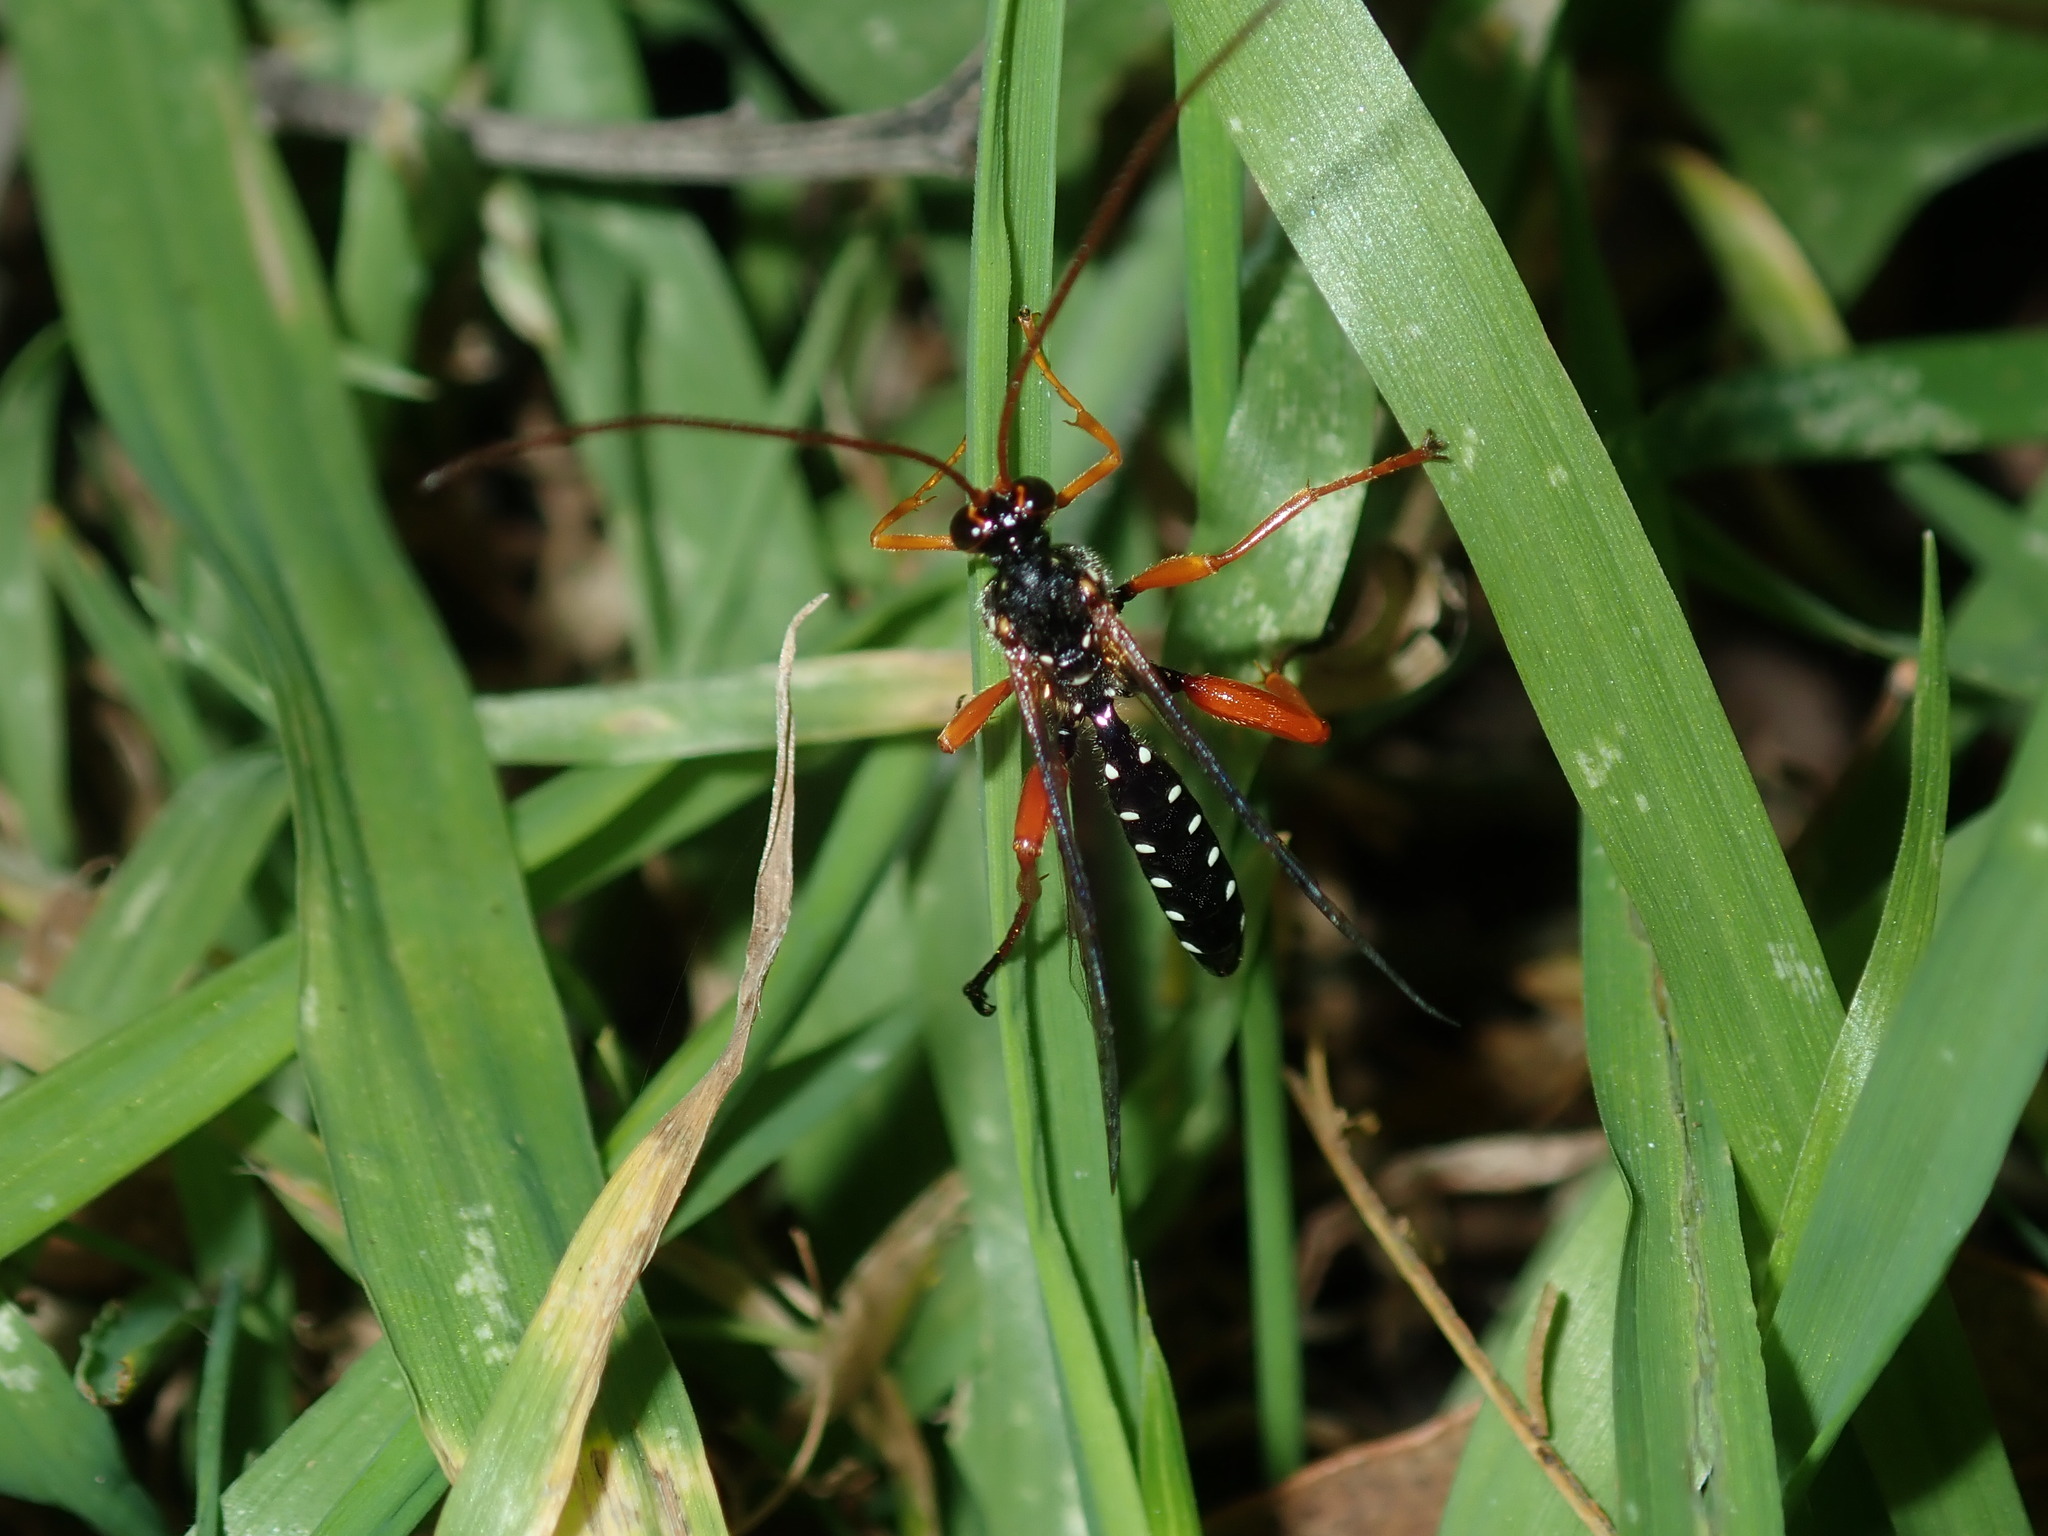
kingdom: Animalia
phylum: Arthropoda
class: Insecta
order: Hymenoptera
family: Ichneumonidae
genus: Echthromorpha
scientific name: Echthromorpha intricatoria
